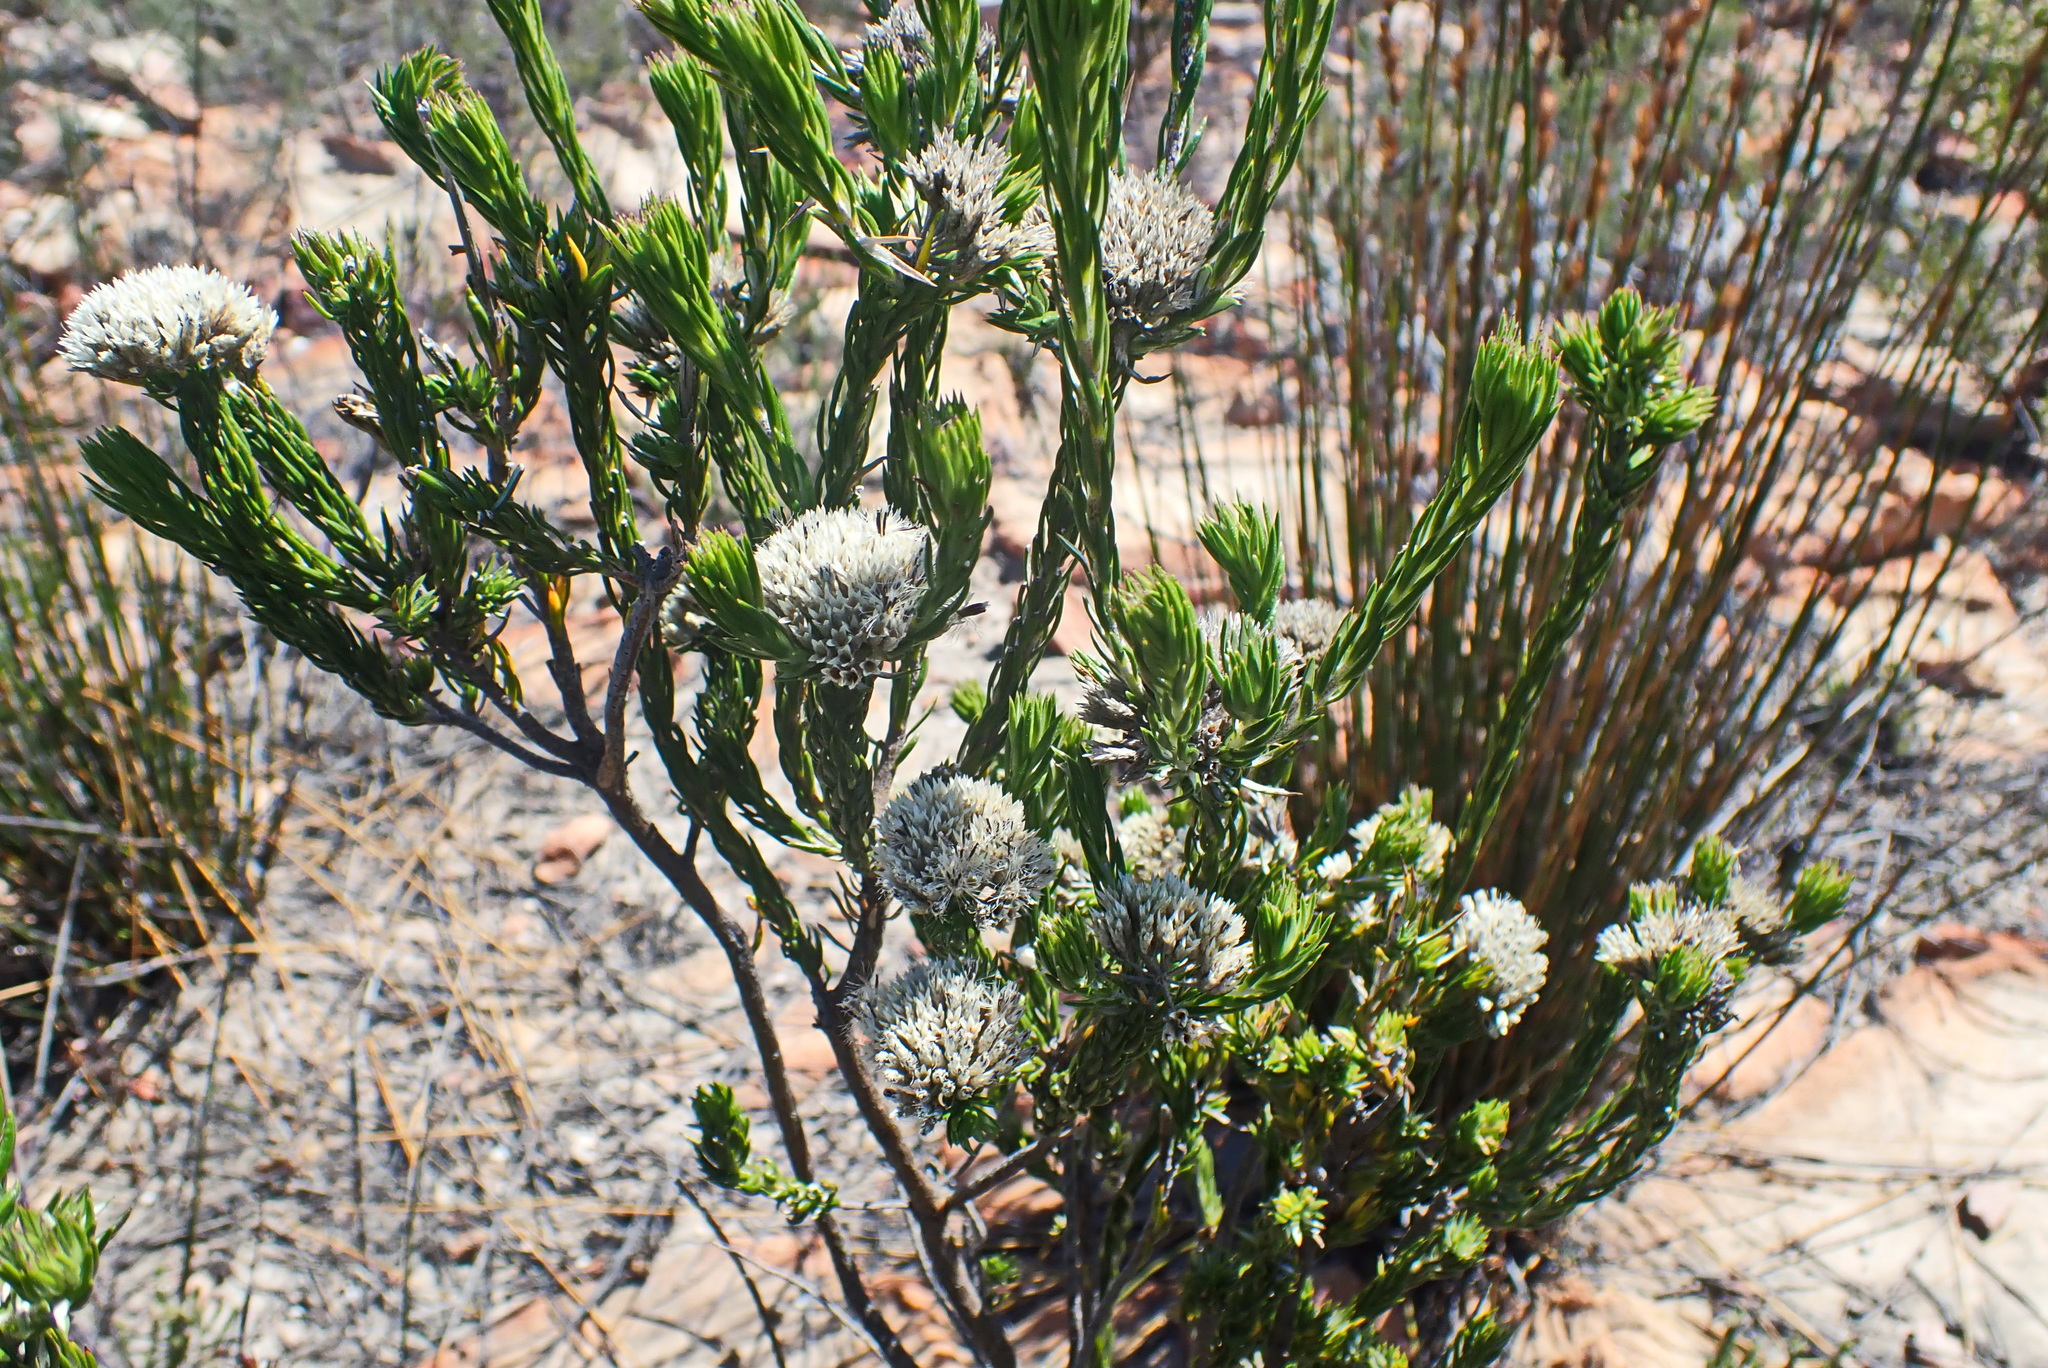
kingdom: Plantae
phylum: Tracheophyta
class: Magnoliopsida
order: Asterales
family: Asteraceae
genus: Metalasia
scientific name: Metalasia pulcherrima
